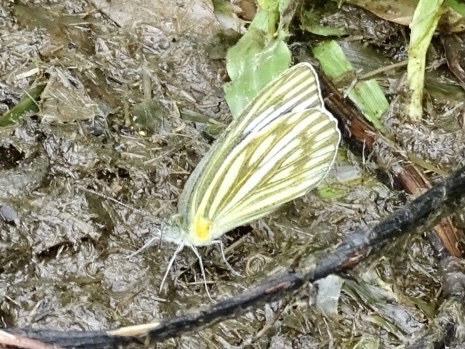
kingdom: Animalia
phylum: Arthropoda
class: Insecta
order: Lepidoptera
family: Pieridae
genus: Cepora
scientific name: Cepora nerissa
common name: Common gull
